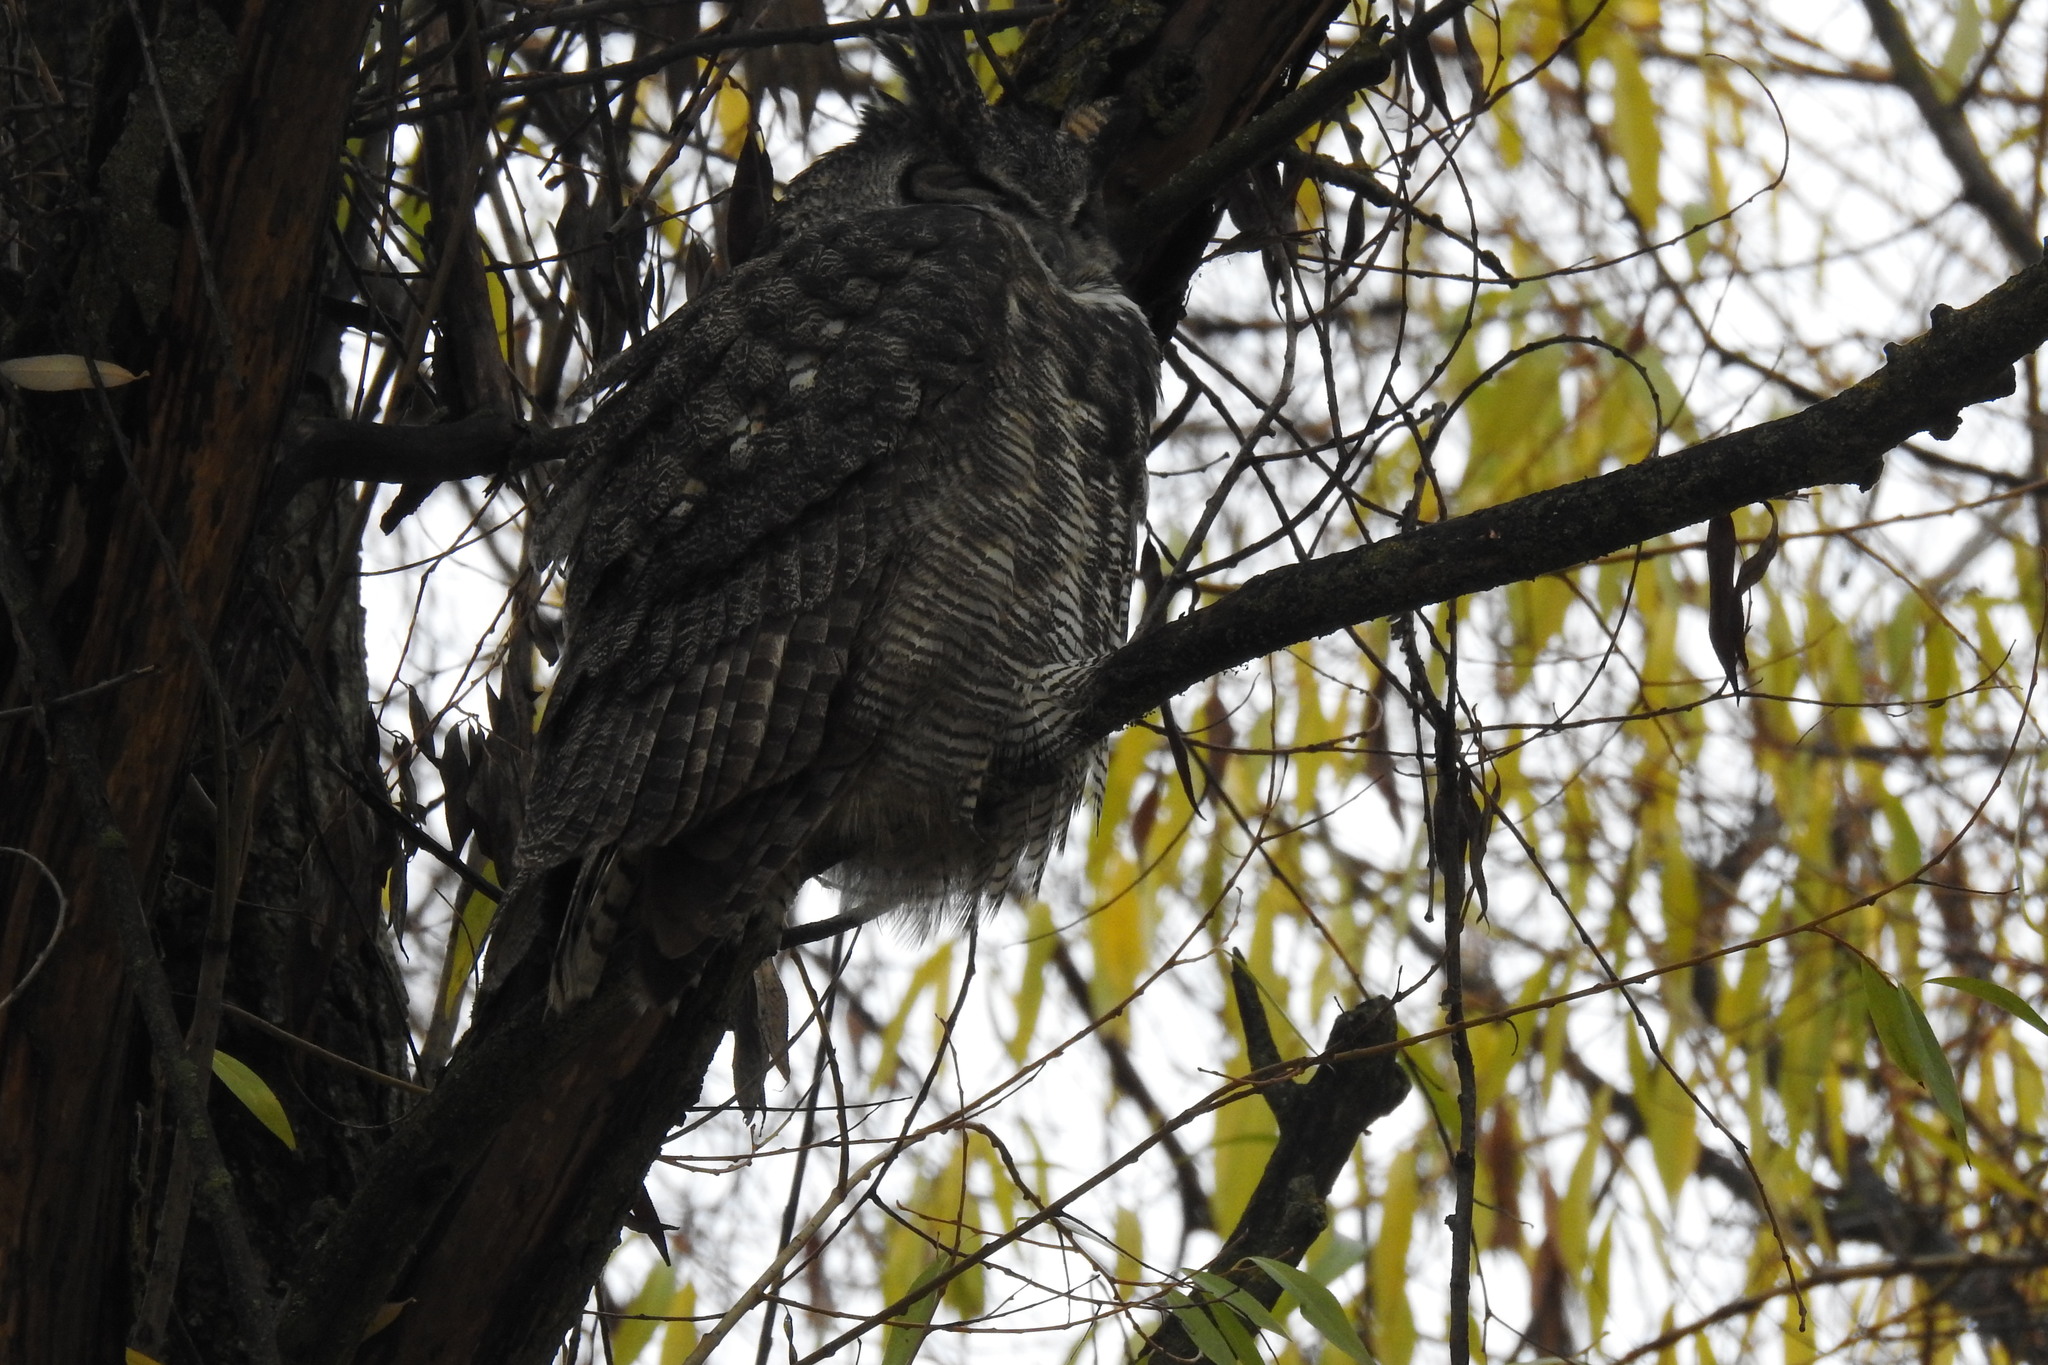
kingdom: Animalia
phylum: Chordata
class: Aves
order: Strigiformes
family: Strigidae
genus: Bubo
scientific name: Bubo virginianus
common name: Great horned owl
